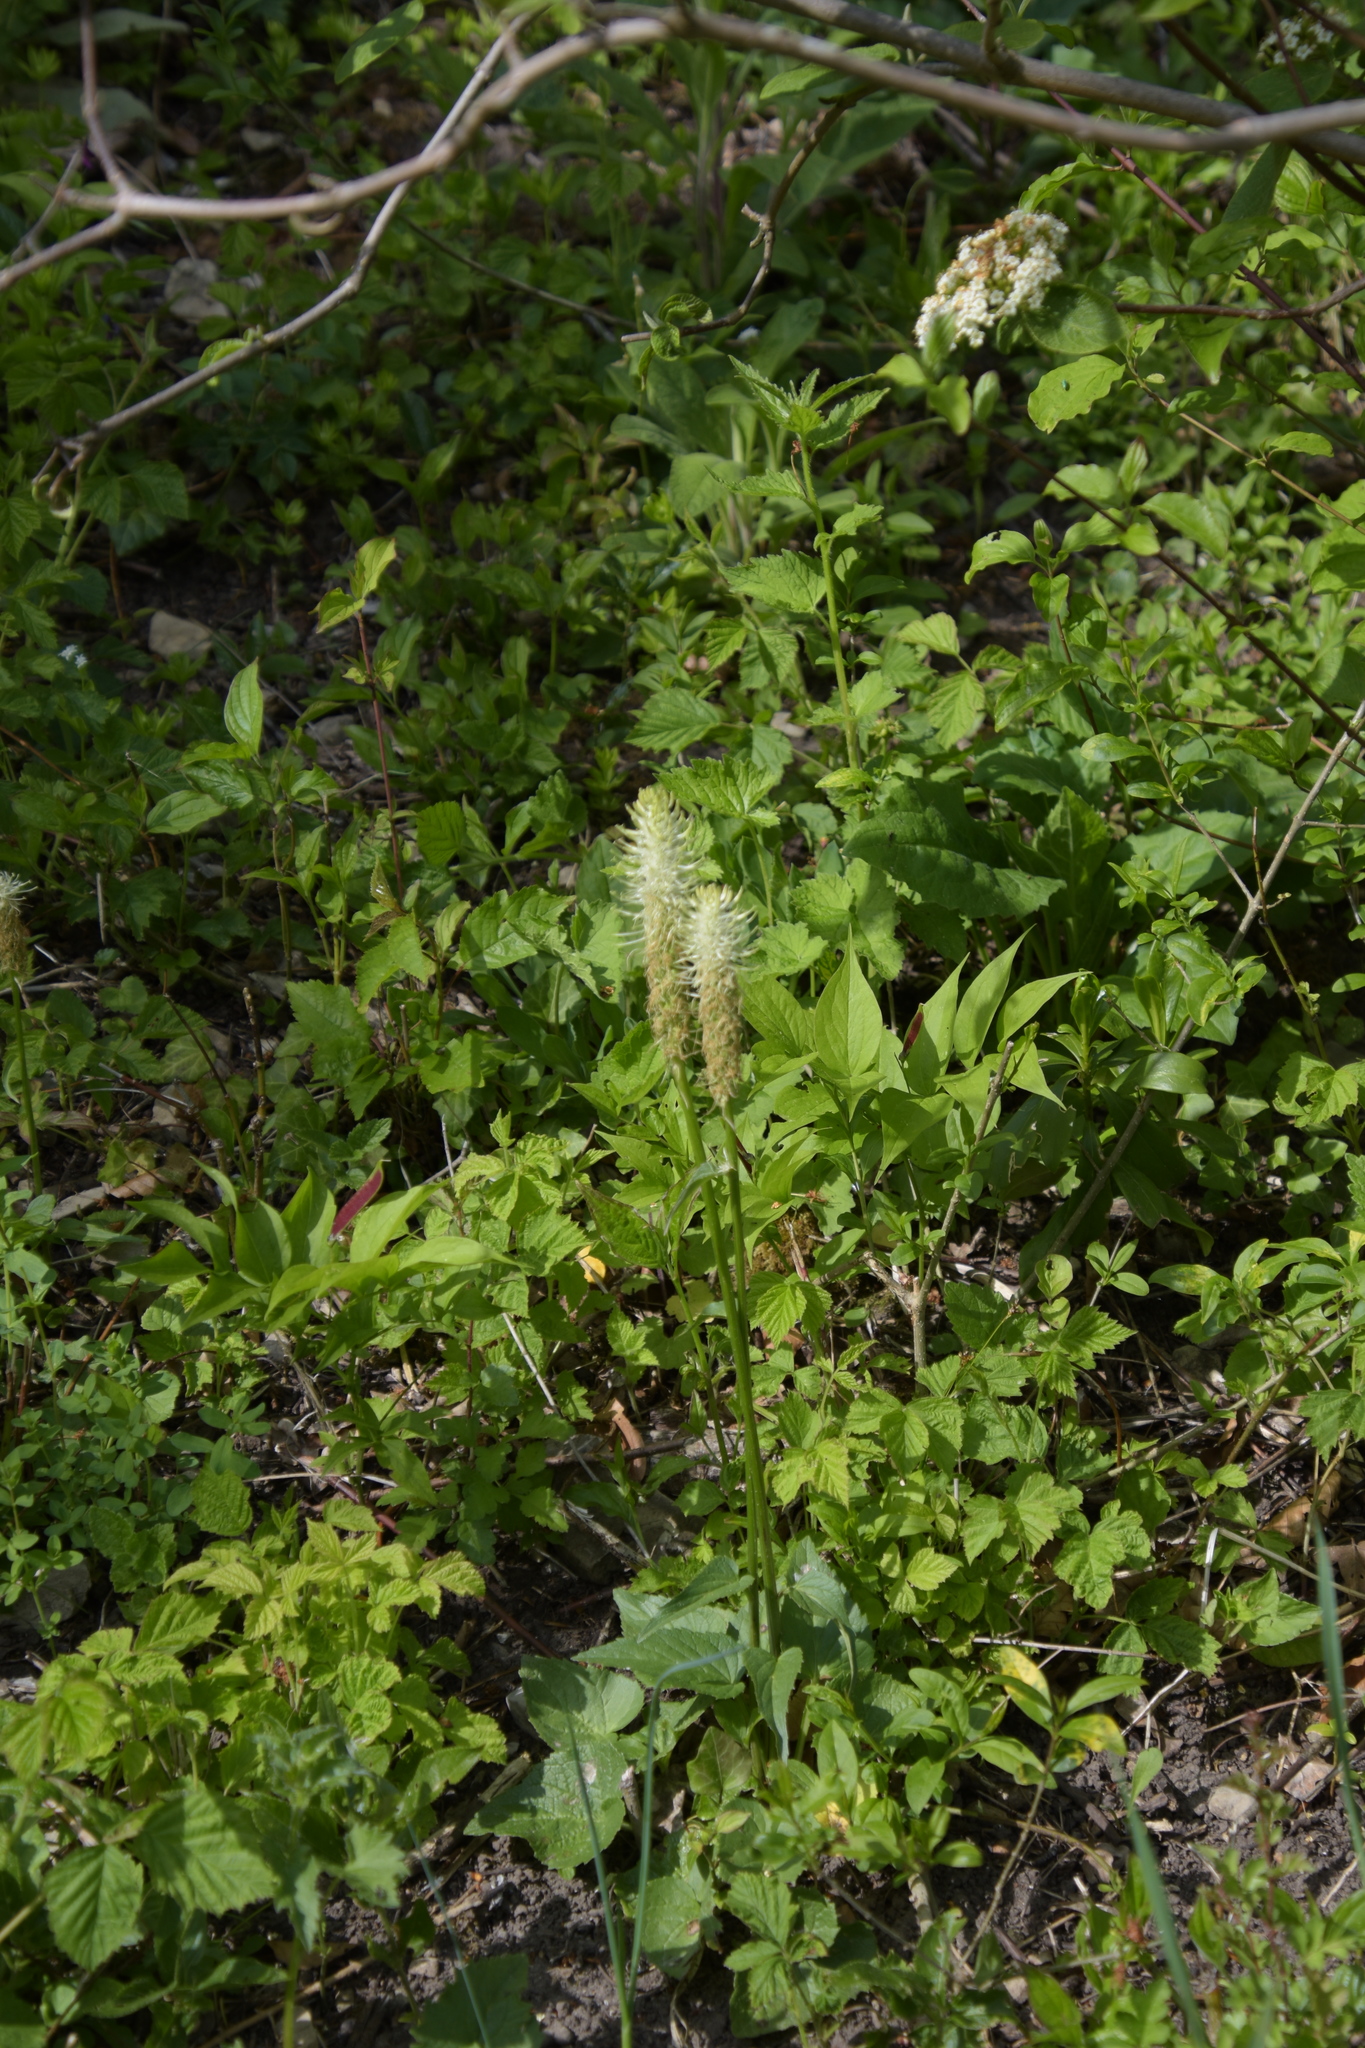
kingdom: Plantae
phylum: Tracheophyta
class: Magnoliopsida
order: Asterales
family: Campanulaceae
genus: Phyteuma
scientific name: Phyteuma spicatum
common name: Spiked rampion
